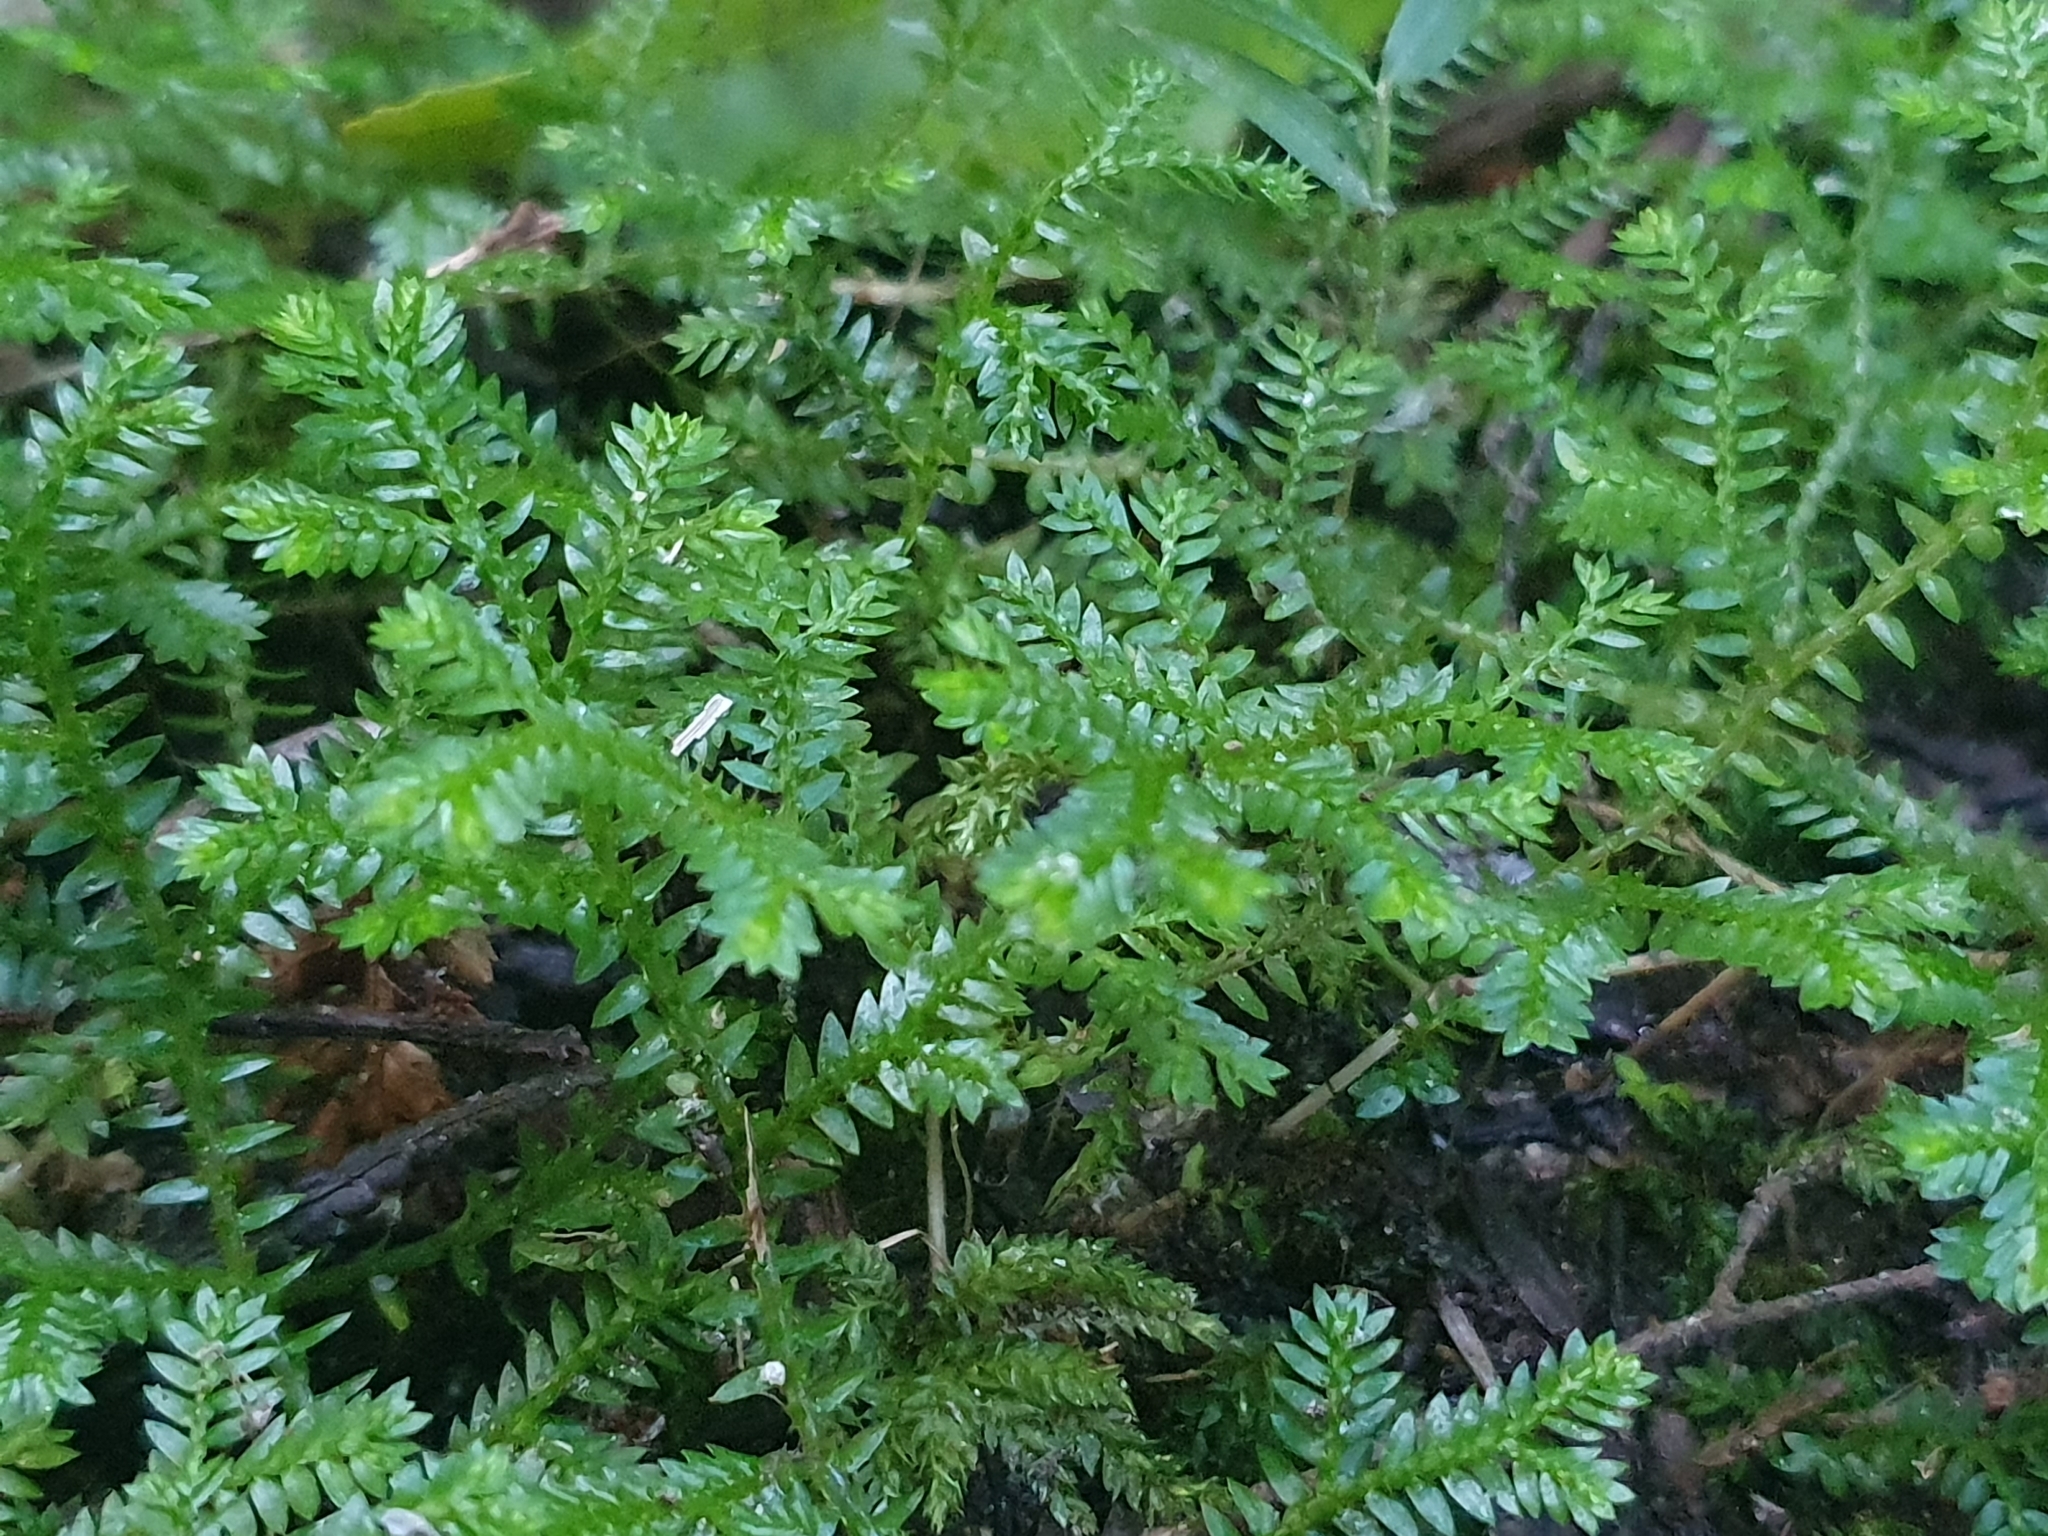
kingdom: Plantae
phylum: Tracheophyta
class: Lycopodiopsida
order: Selaginellales
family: Selaginellaceae
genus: Selaginella
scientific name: Selaginella kraussiana
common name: Krauss' spikemoss
